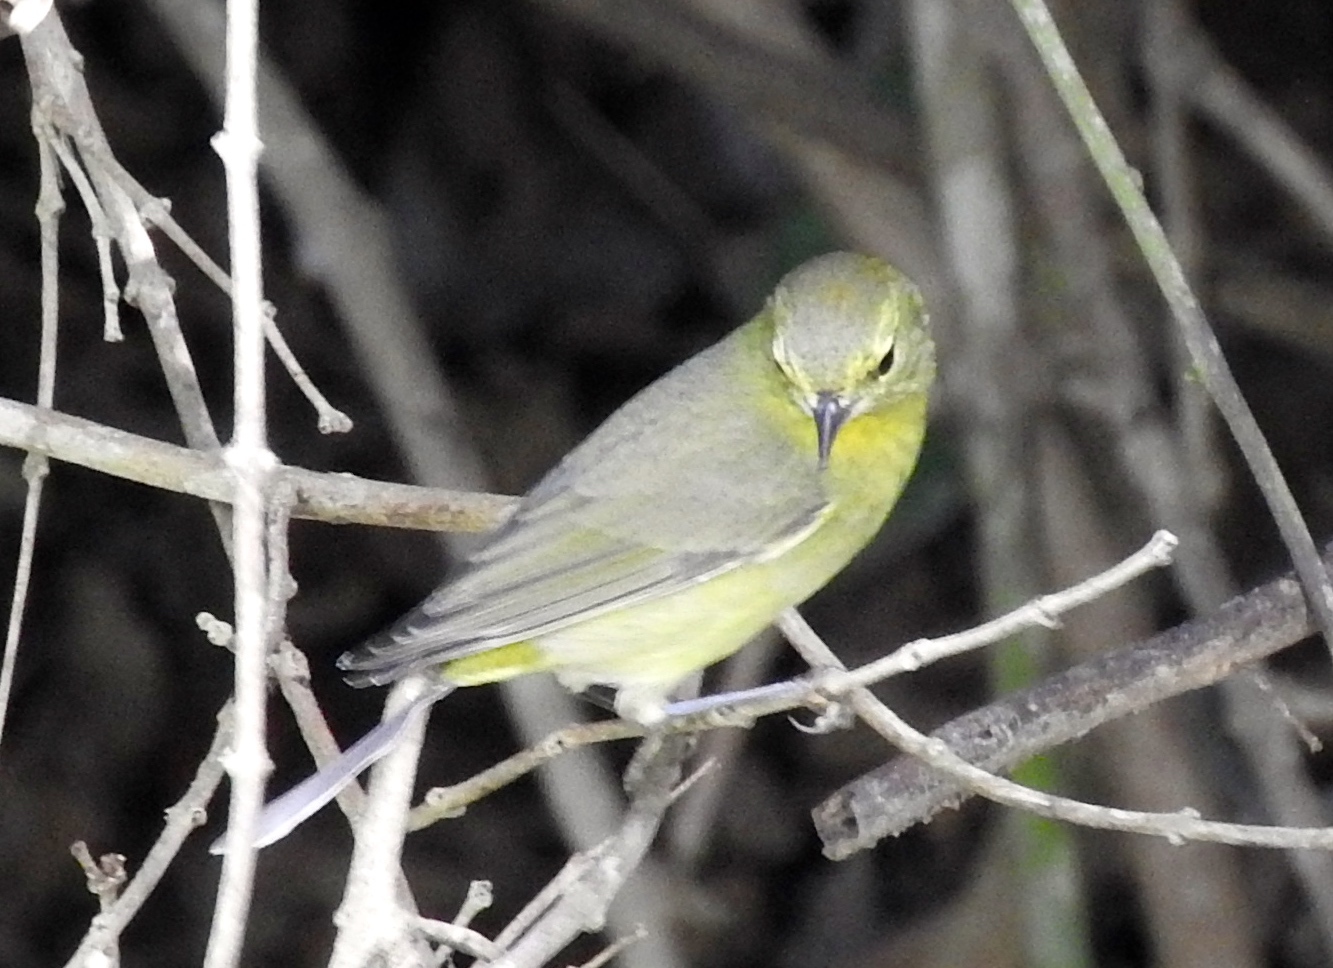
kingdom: Animalia
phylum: Chordata
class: Aves
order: Passeriformes
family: Parulidae
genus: Leiothlypis
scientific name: Leiothlypis celata
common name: Orange-crowned warbler
